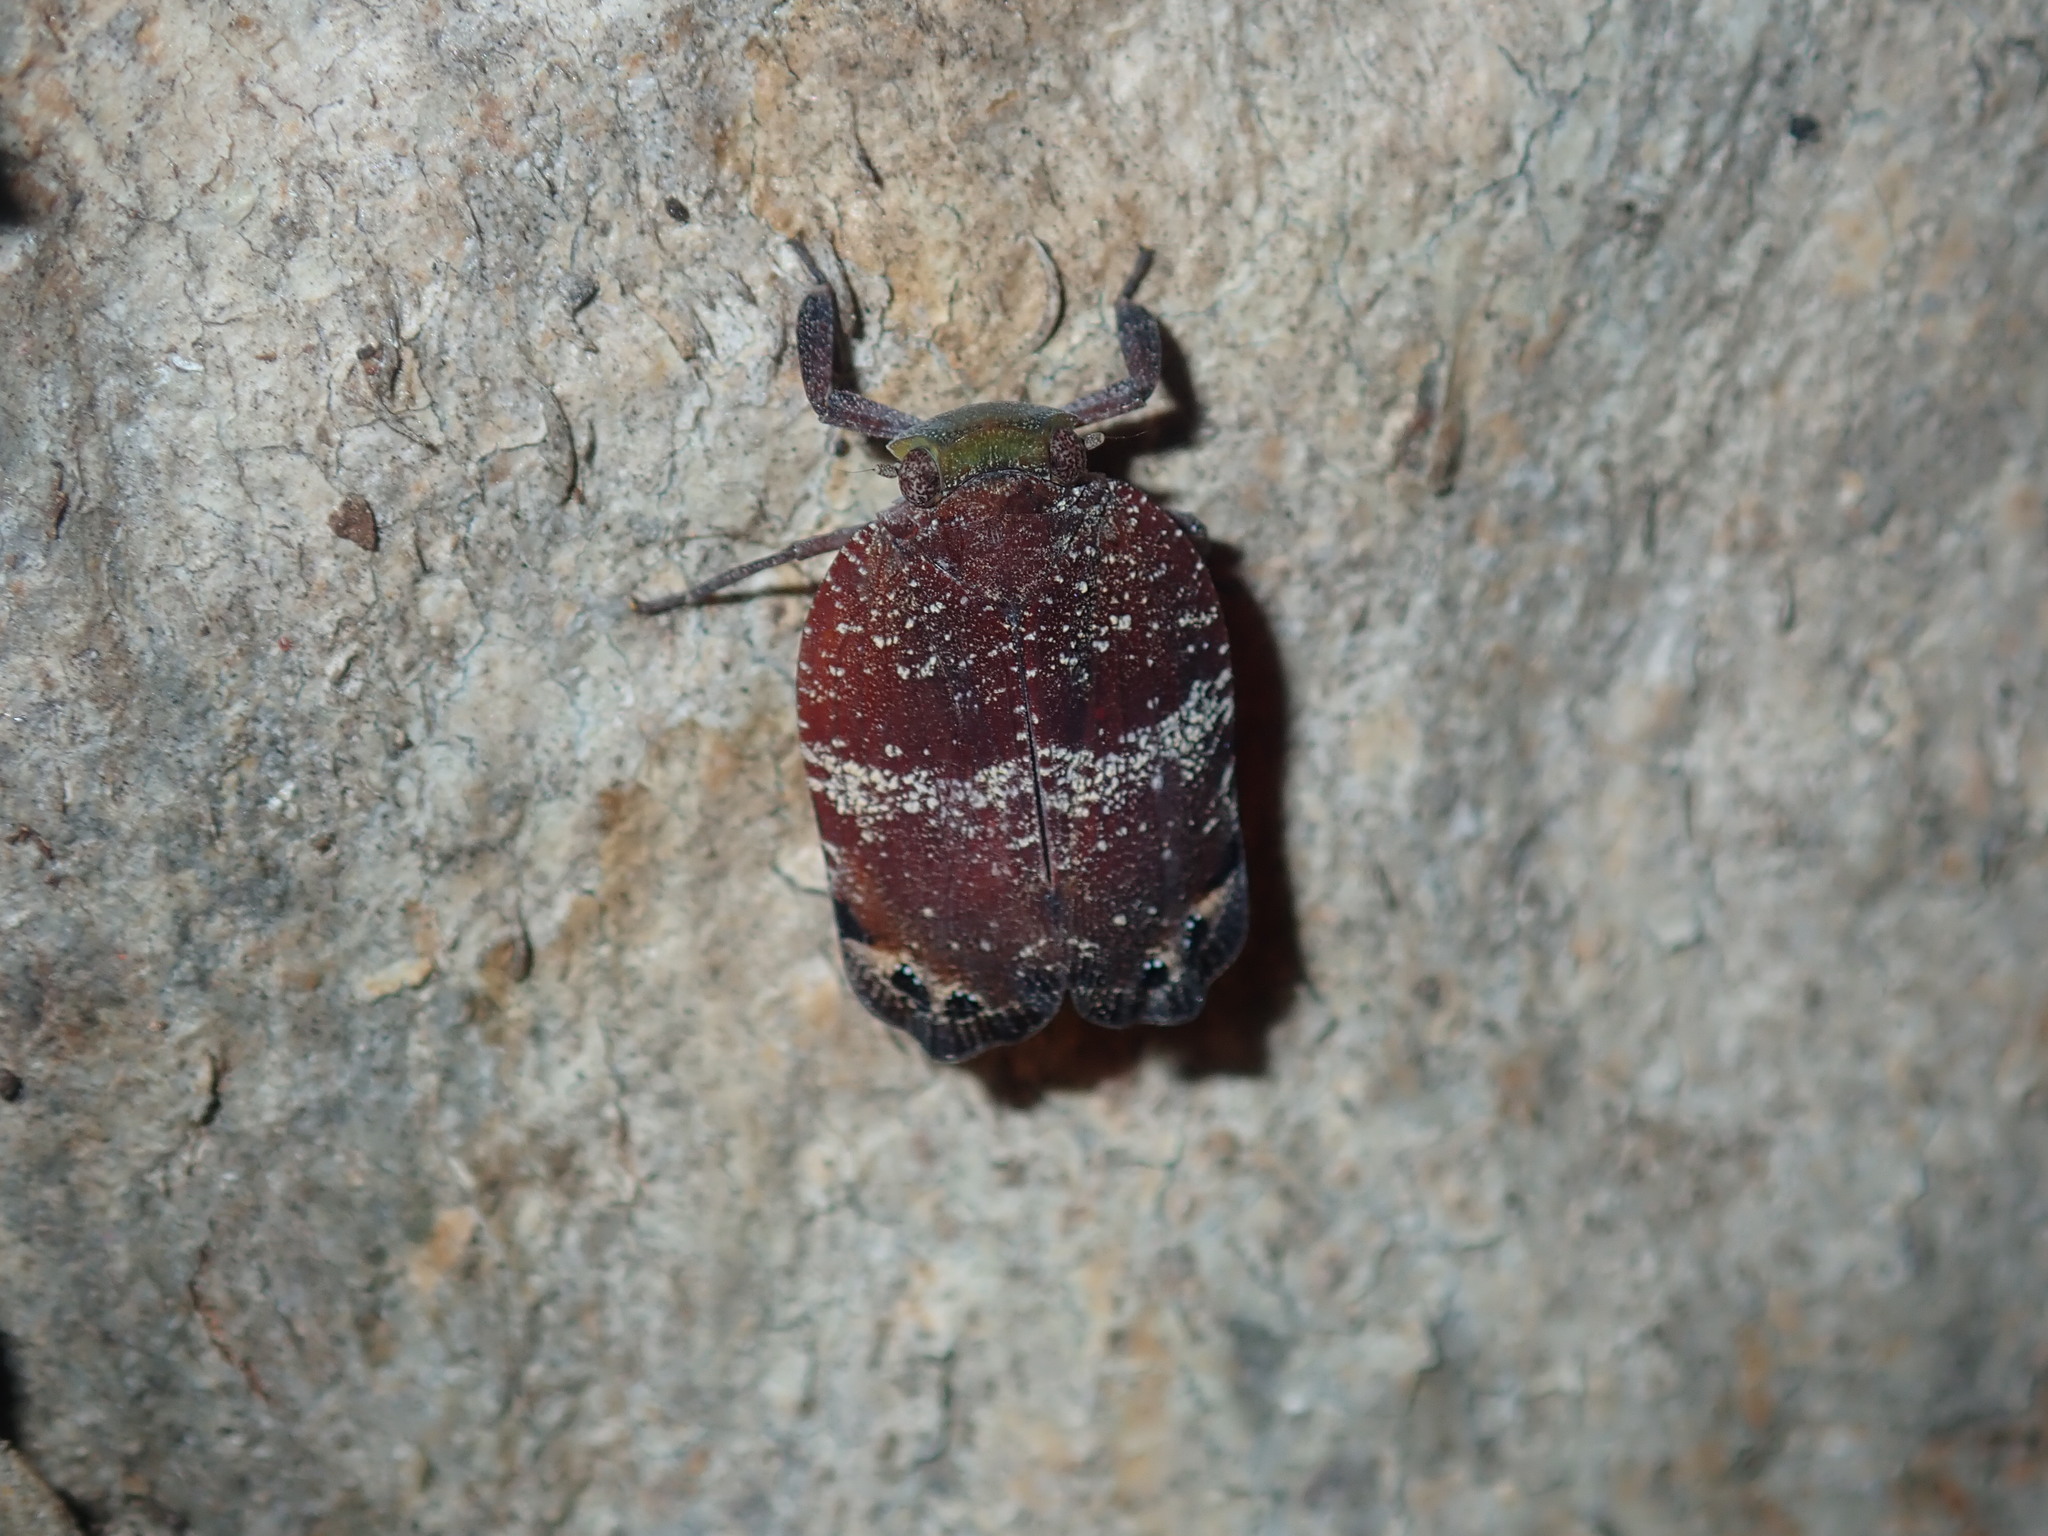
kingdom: Animalia
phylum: Arthropoda
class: Insecta
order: Hemiptera
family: Eurybrachidae
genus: Platybrachys
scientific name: Platybrachys decemmacula
